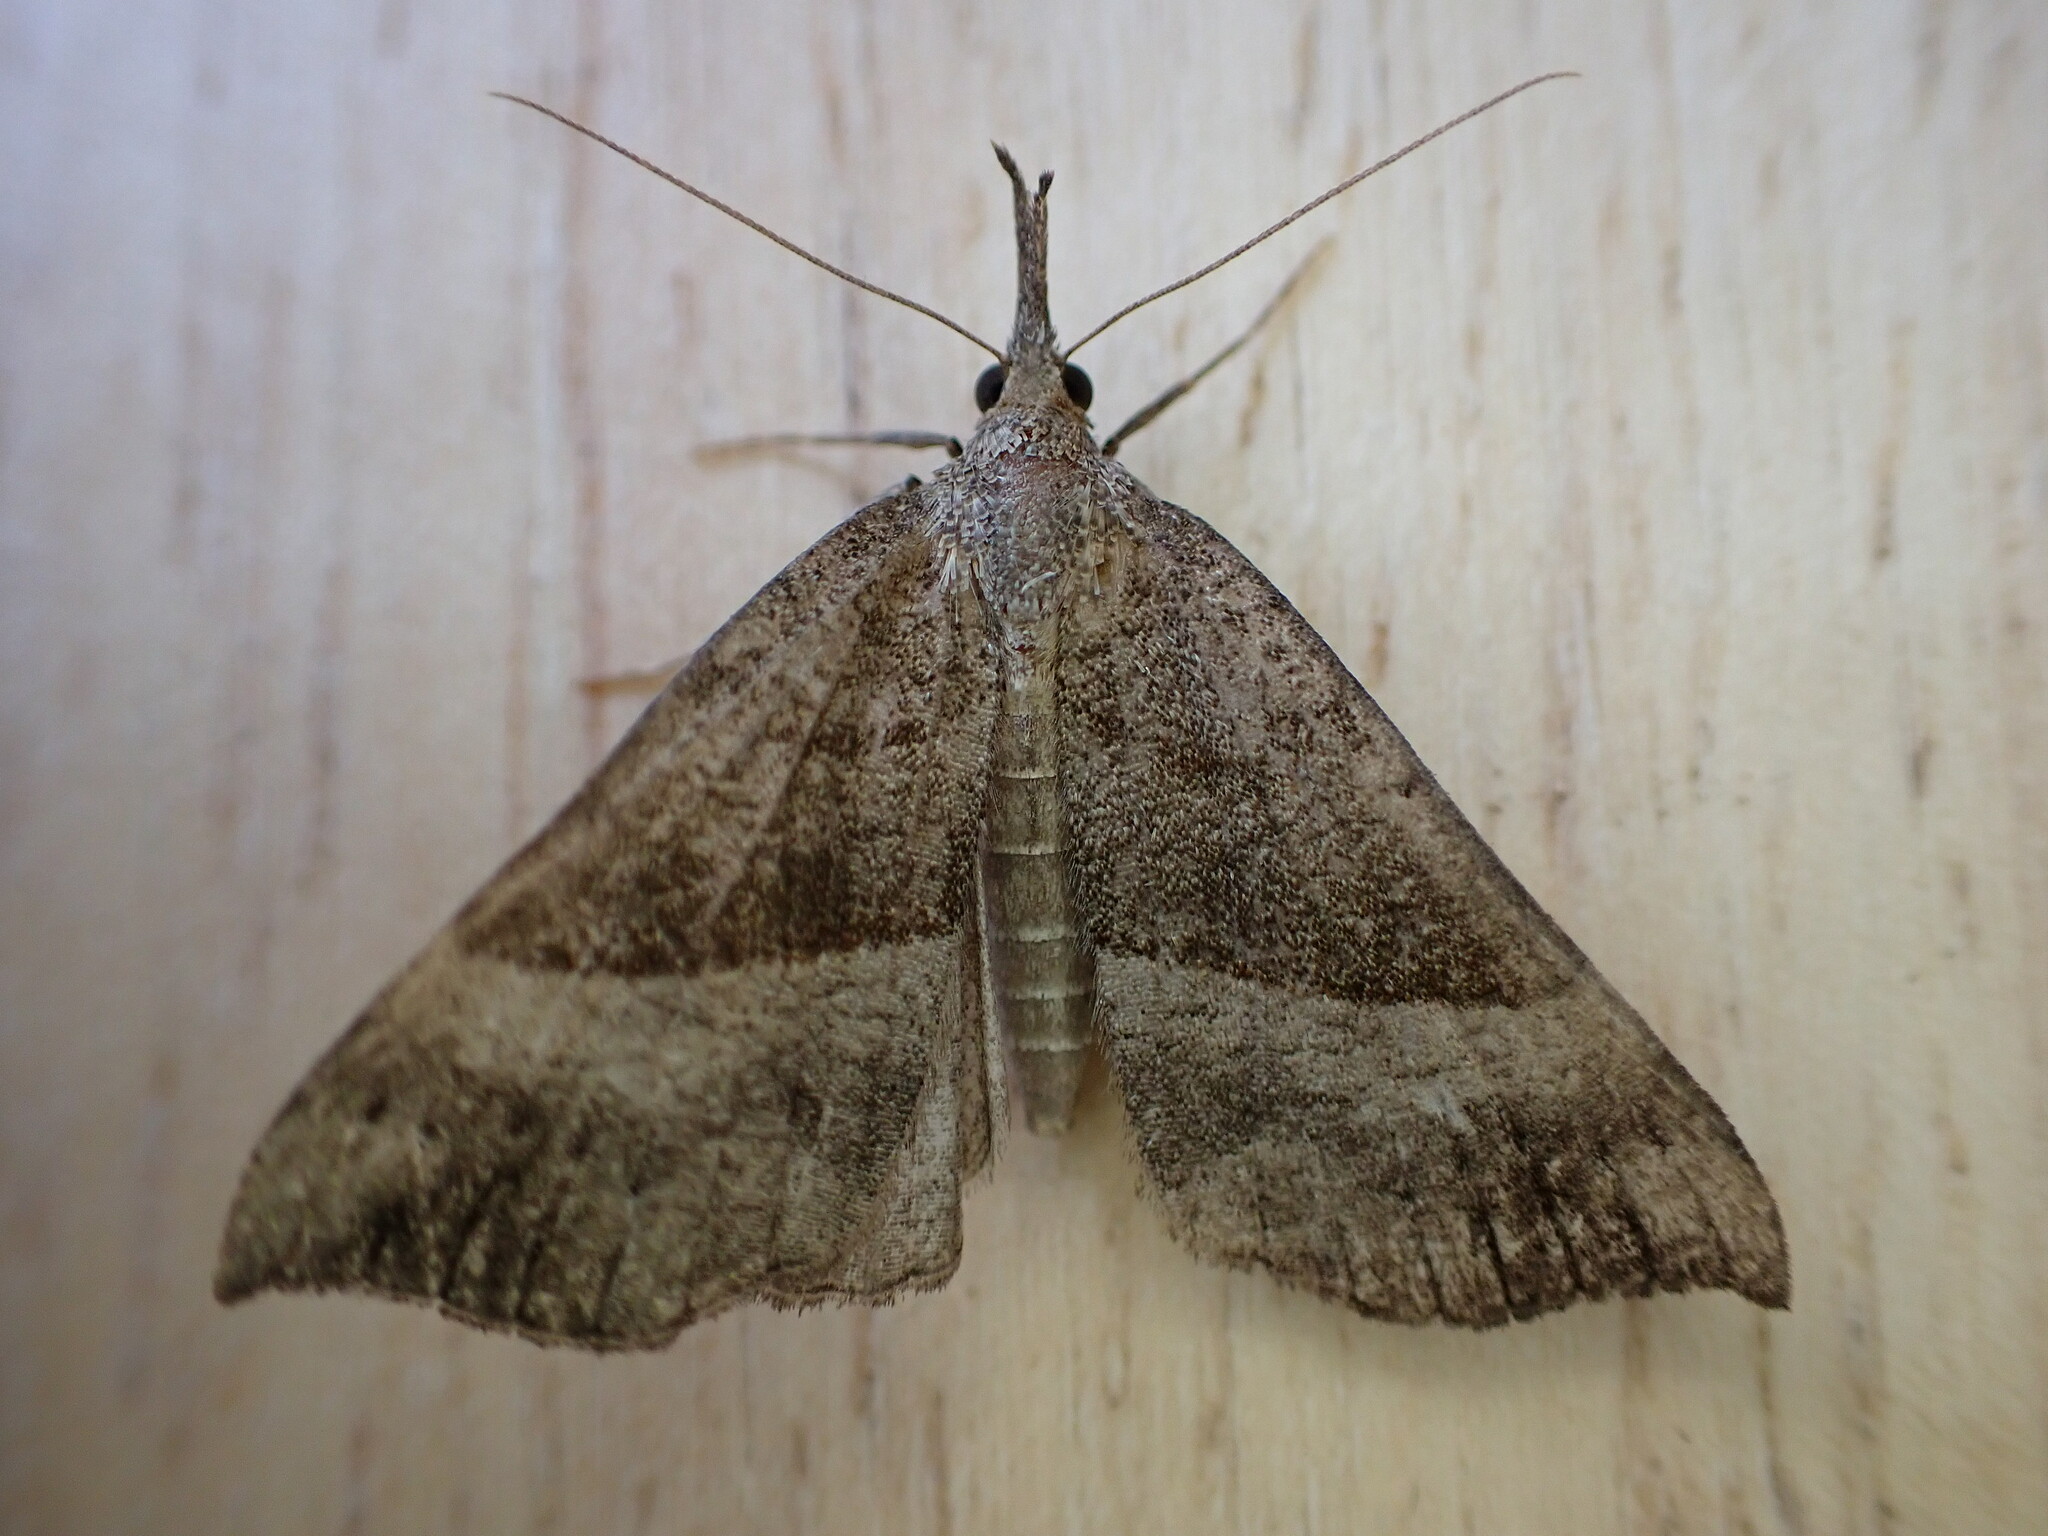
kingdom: Animalia
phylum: Arthropoda
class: Insecta
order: Lepidoptera
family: Erebidae
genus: Hypena
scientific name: Hypena proboscidalis
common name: Snout
